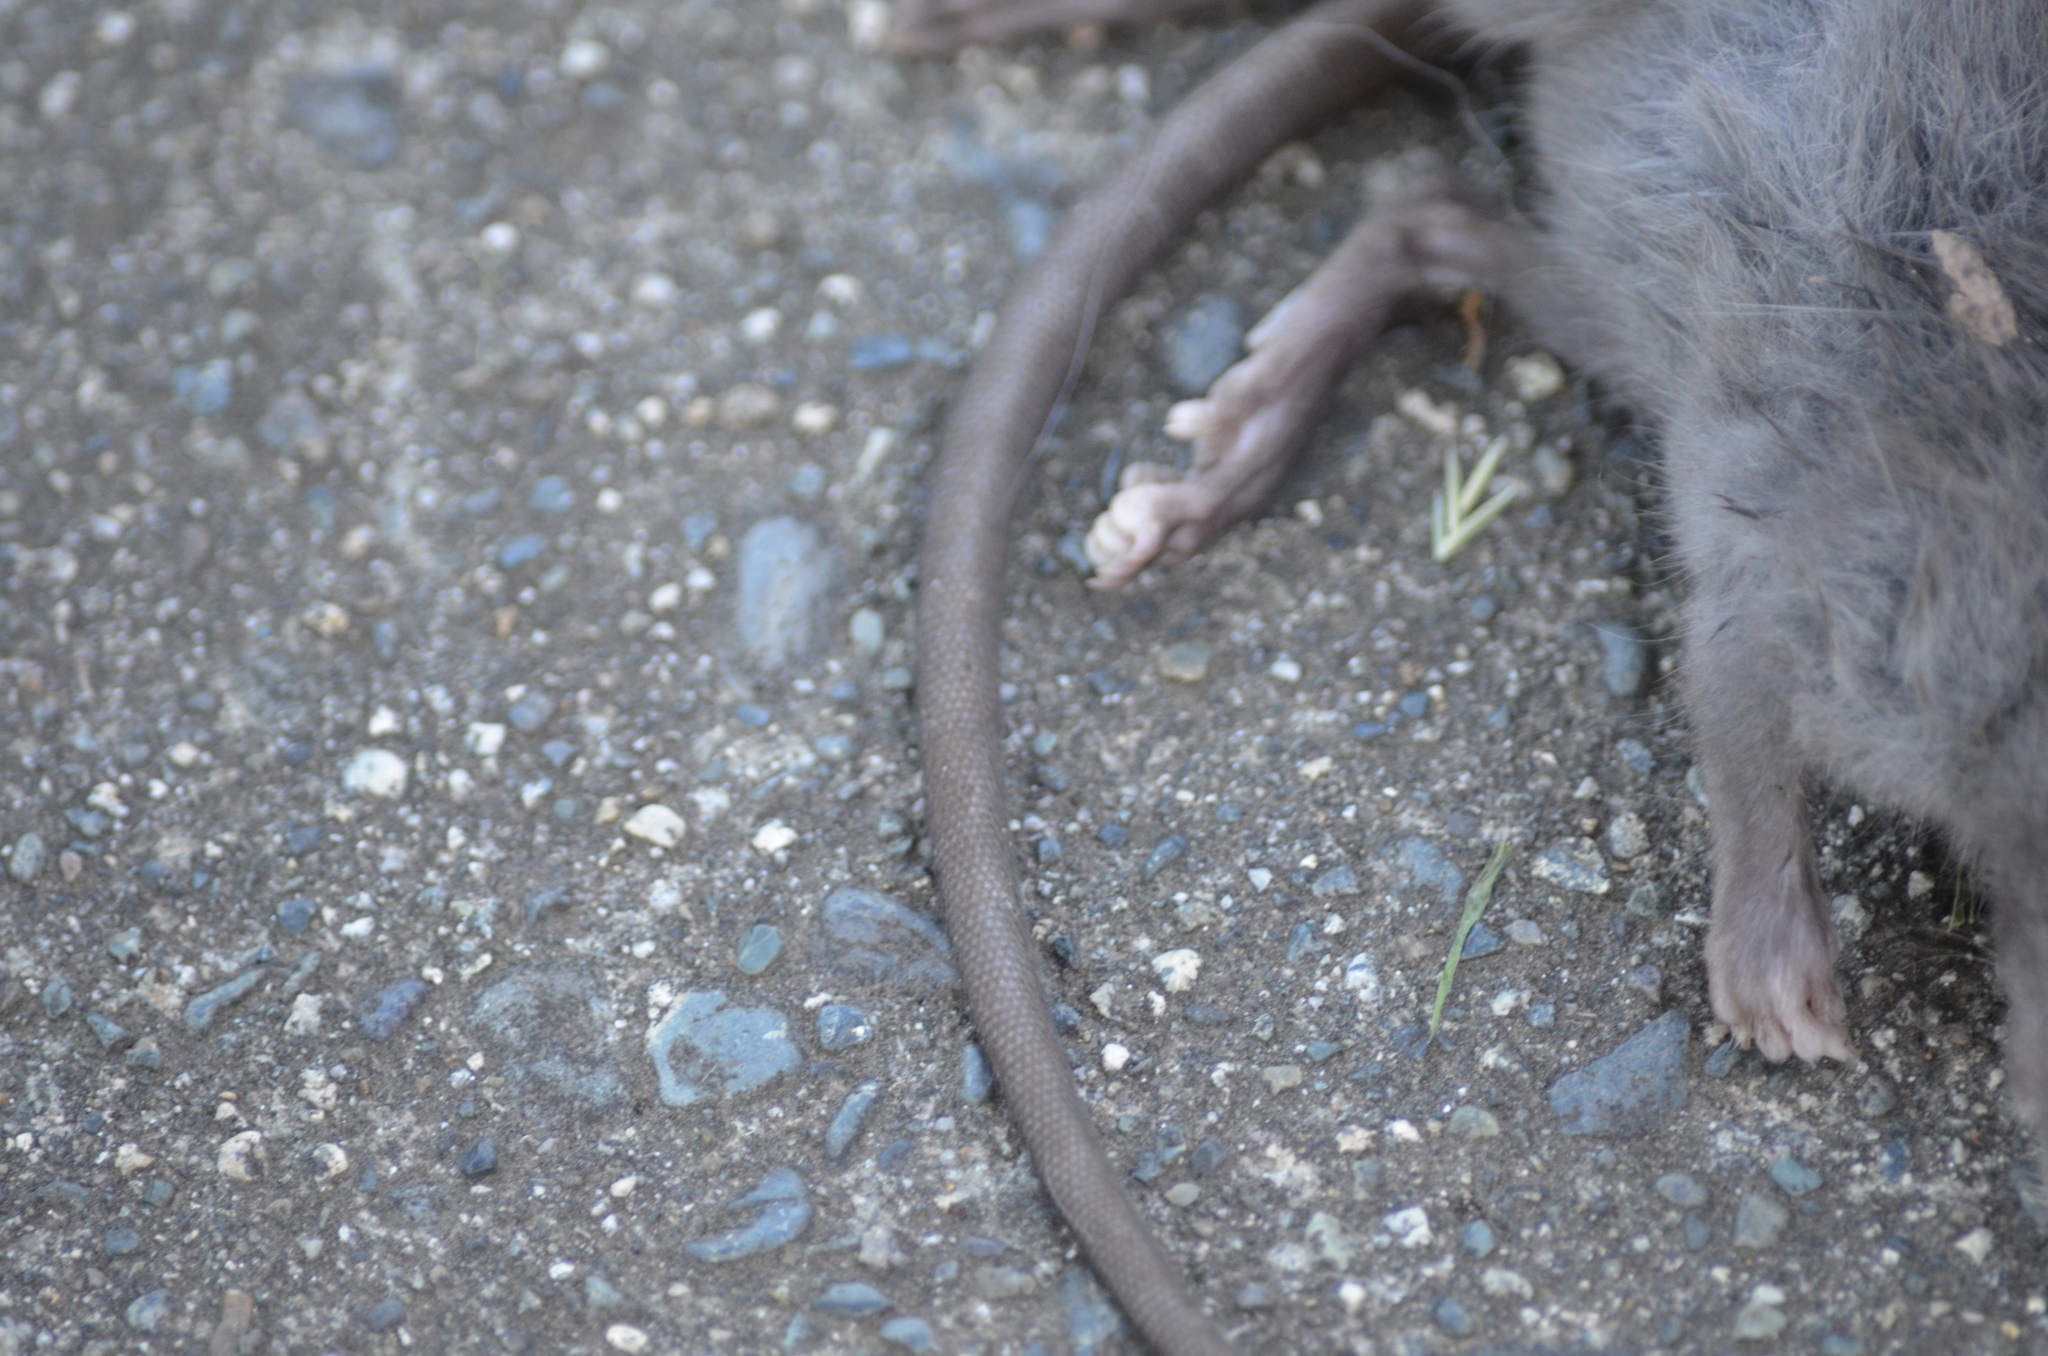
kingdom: Animalia
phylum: Chordata
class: Mammalia
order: Rodentia
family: Muridae
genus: Rattus
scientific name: Rattus rattus
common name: Black rat
